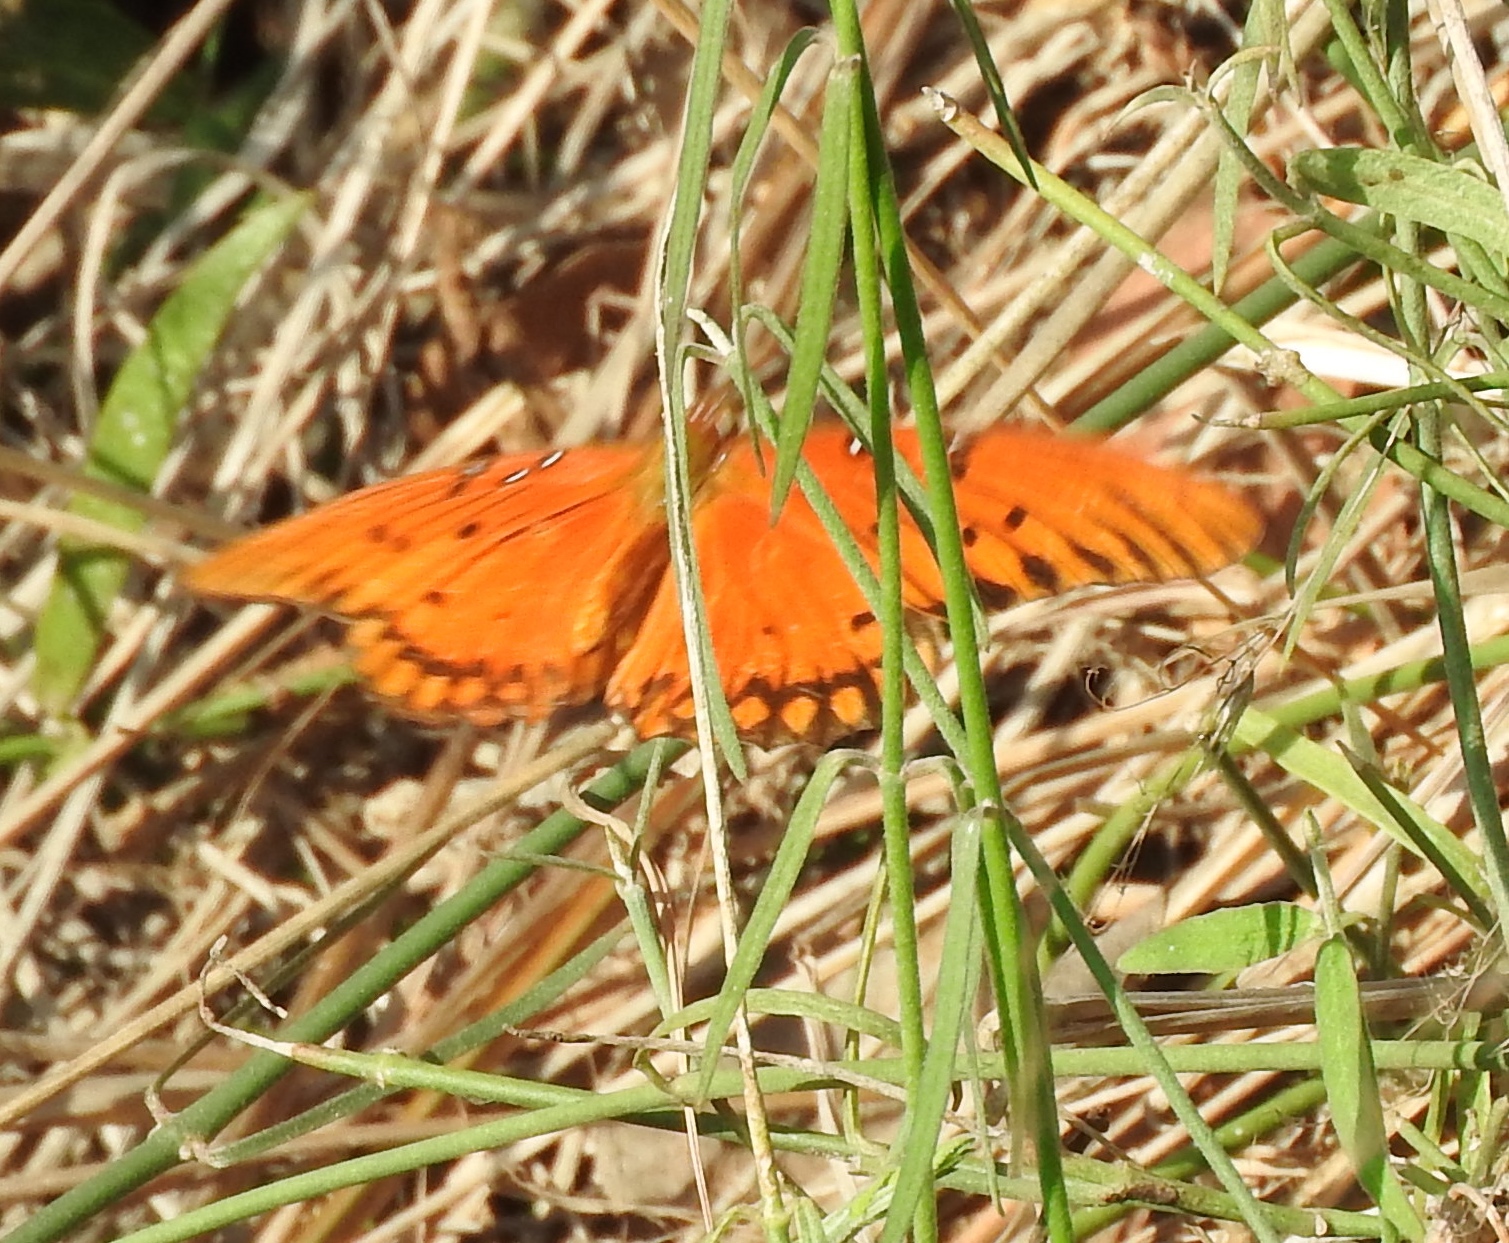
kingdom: Animalia
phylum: Arthropoda
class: Insecta
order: Lepidoptera
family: Nymphalidae
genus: Dione
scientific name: Dione vanillae
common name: Gulf fritillary
